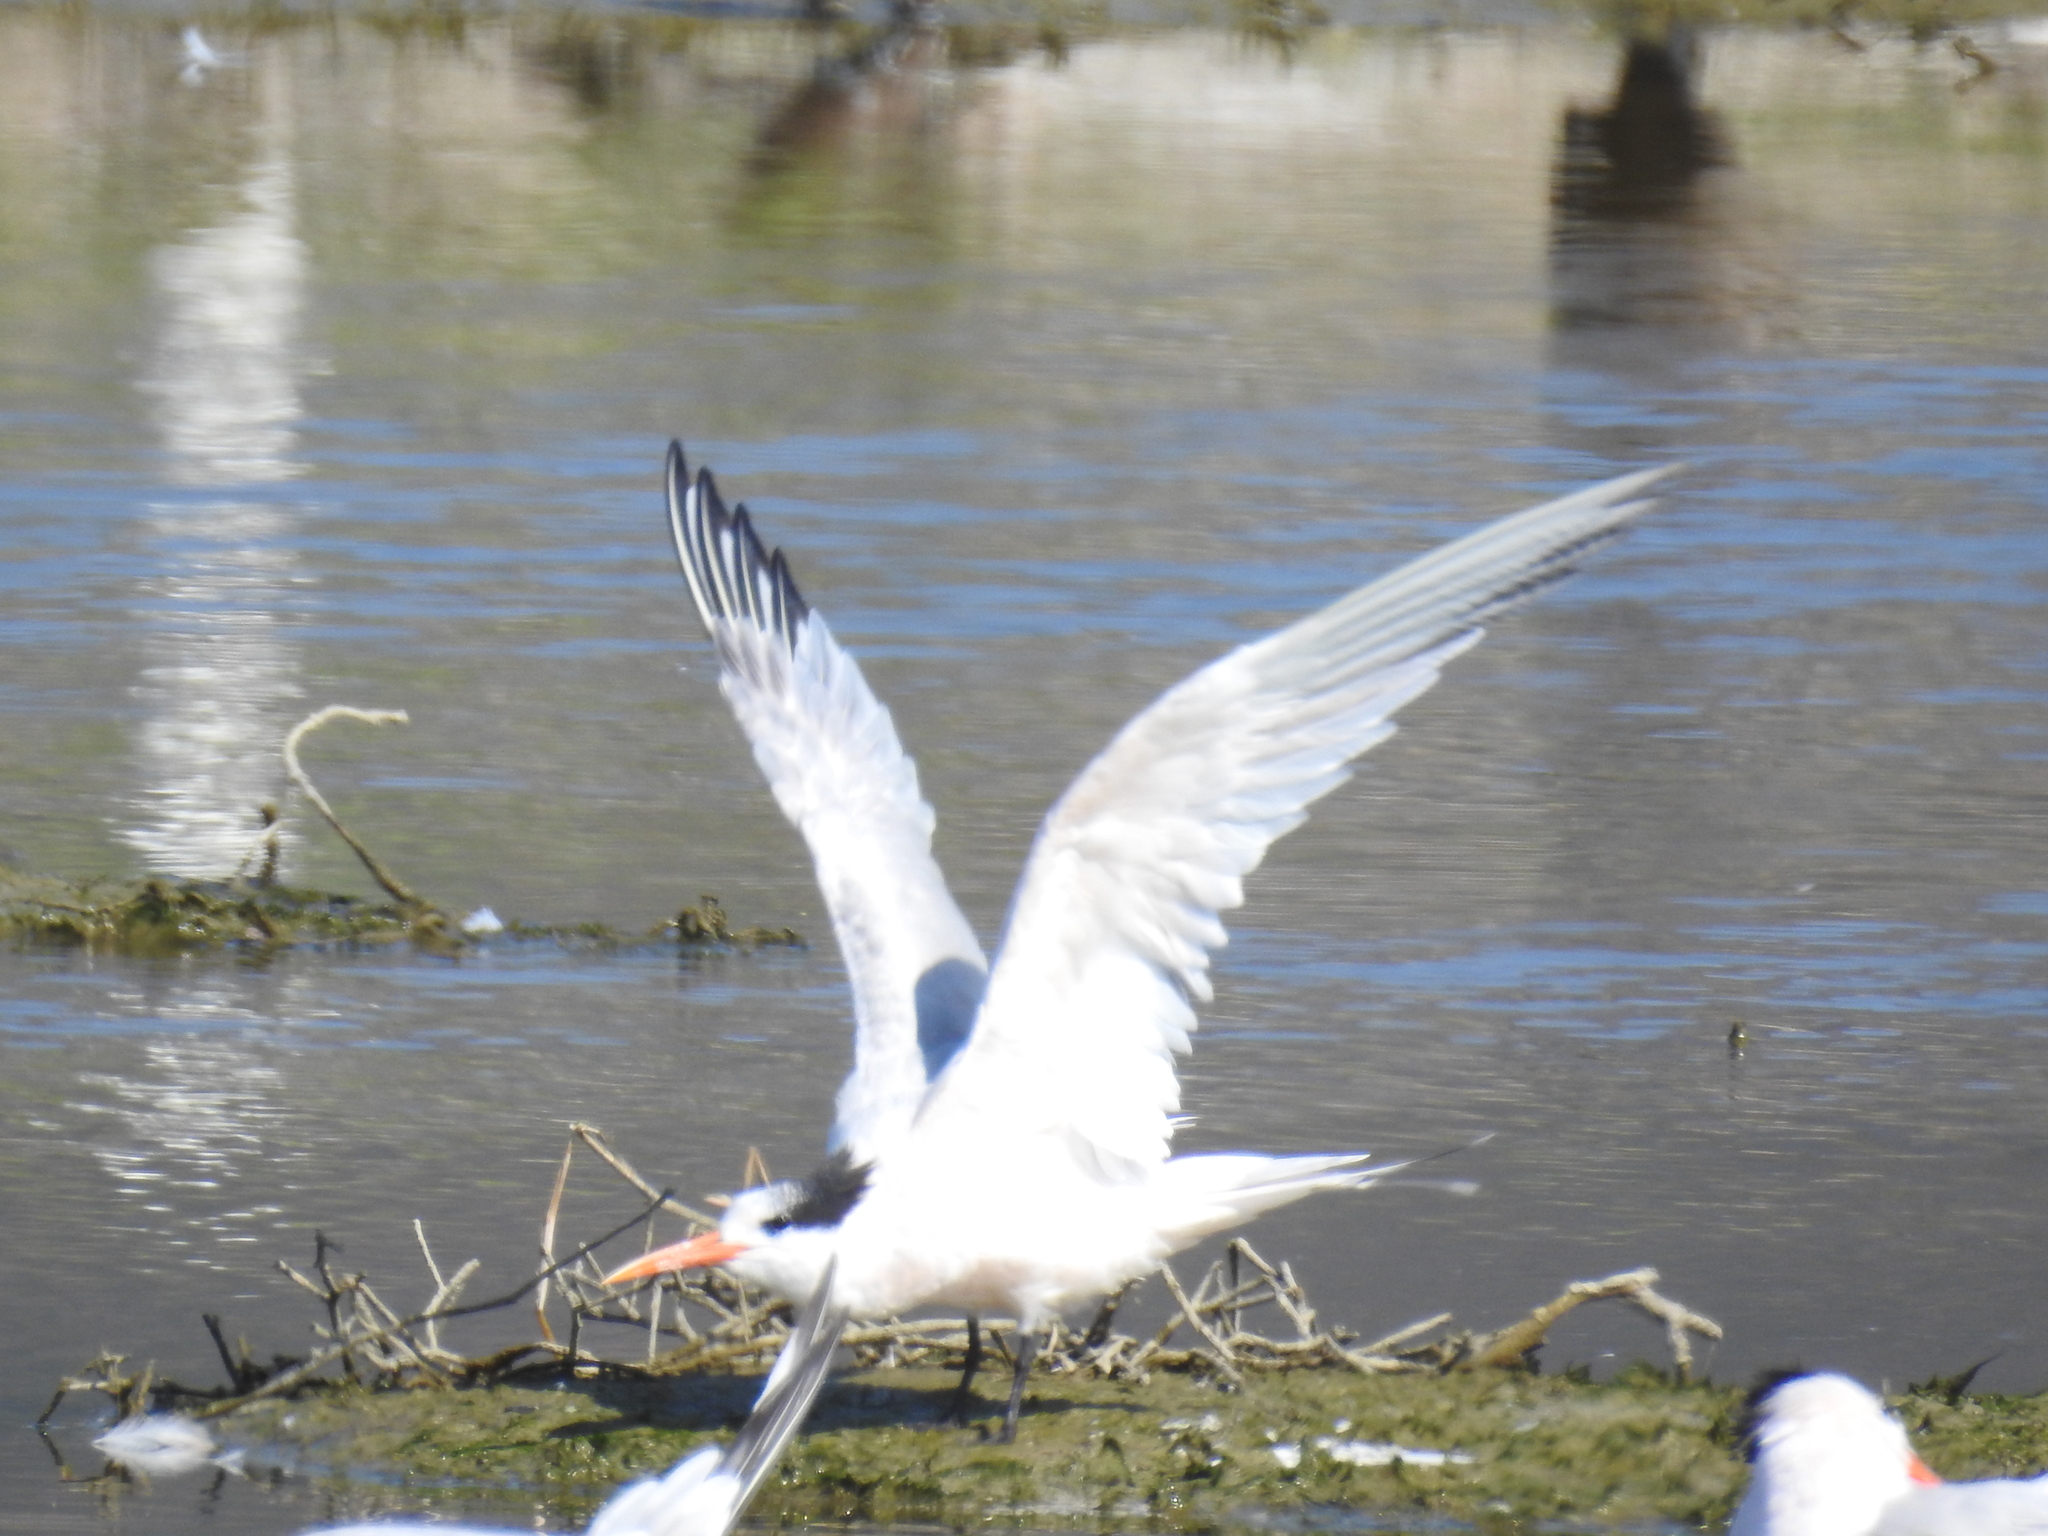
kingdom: Animalia
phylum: Chordata
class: Aves
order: Charadriiformes
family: Laridae
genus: Thalasseus
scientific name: Thalasseus elegans
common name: Elegant tern
